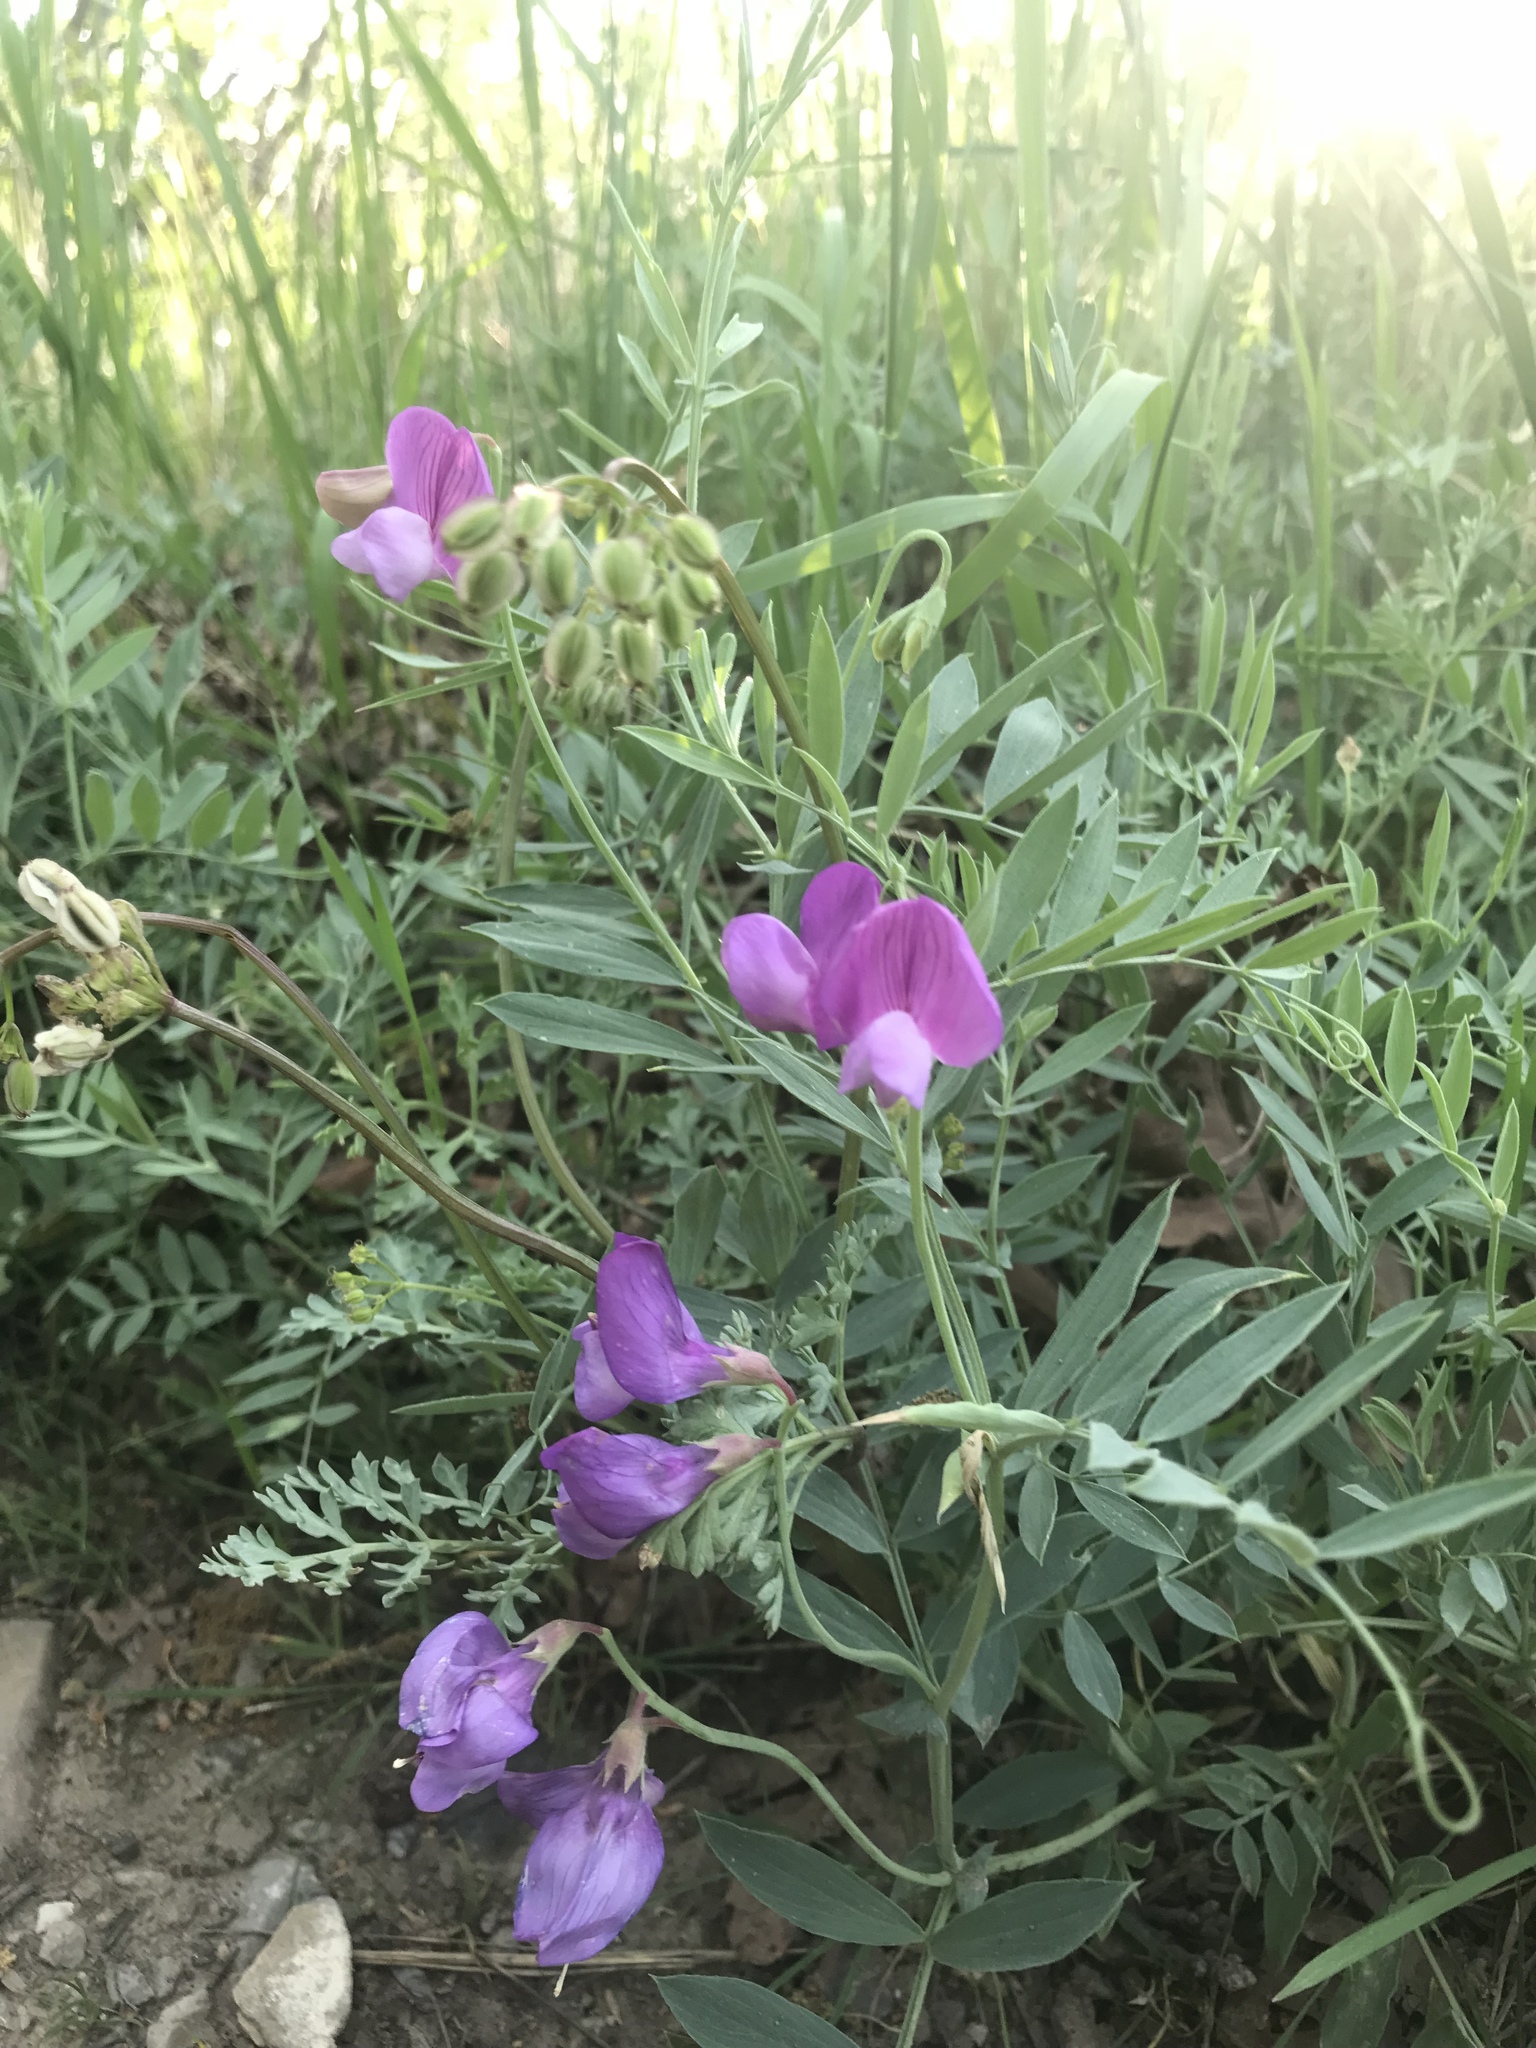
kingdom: Plantae
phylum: Tracheophyta
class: Magnoliopsida
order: Fabales
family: Fabaceae
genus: Lathyrus
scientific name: Lathyrus brachycalyx
